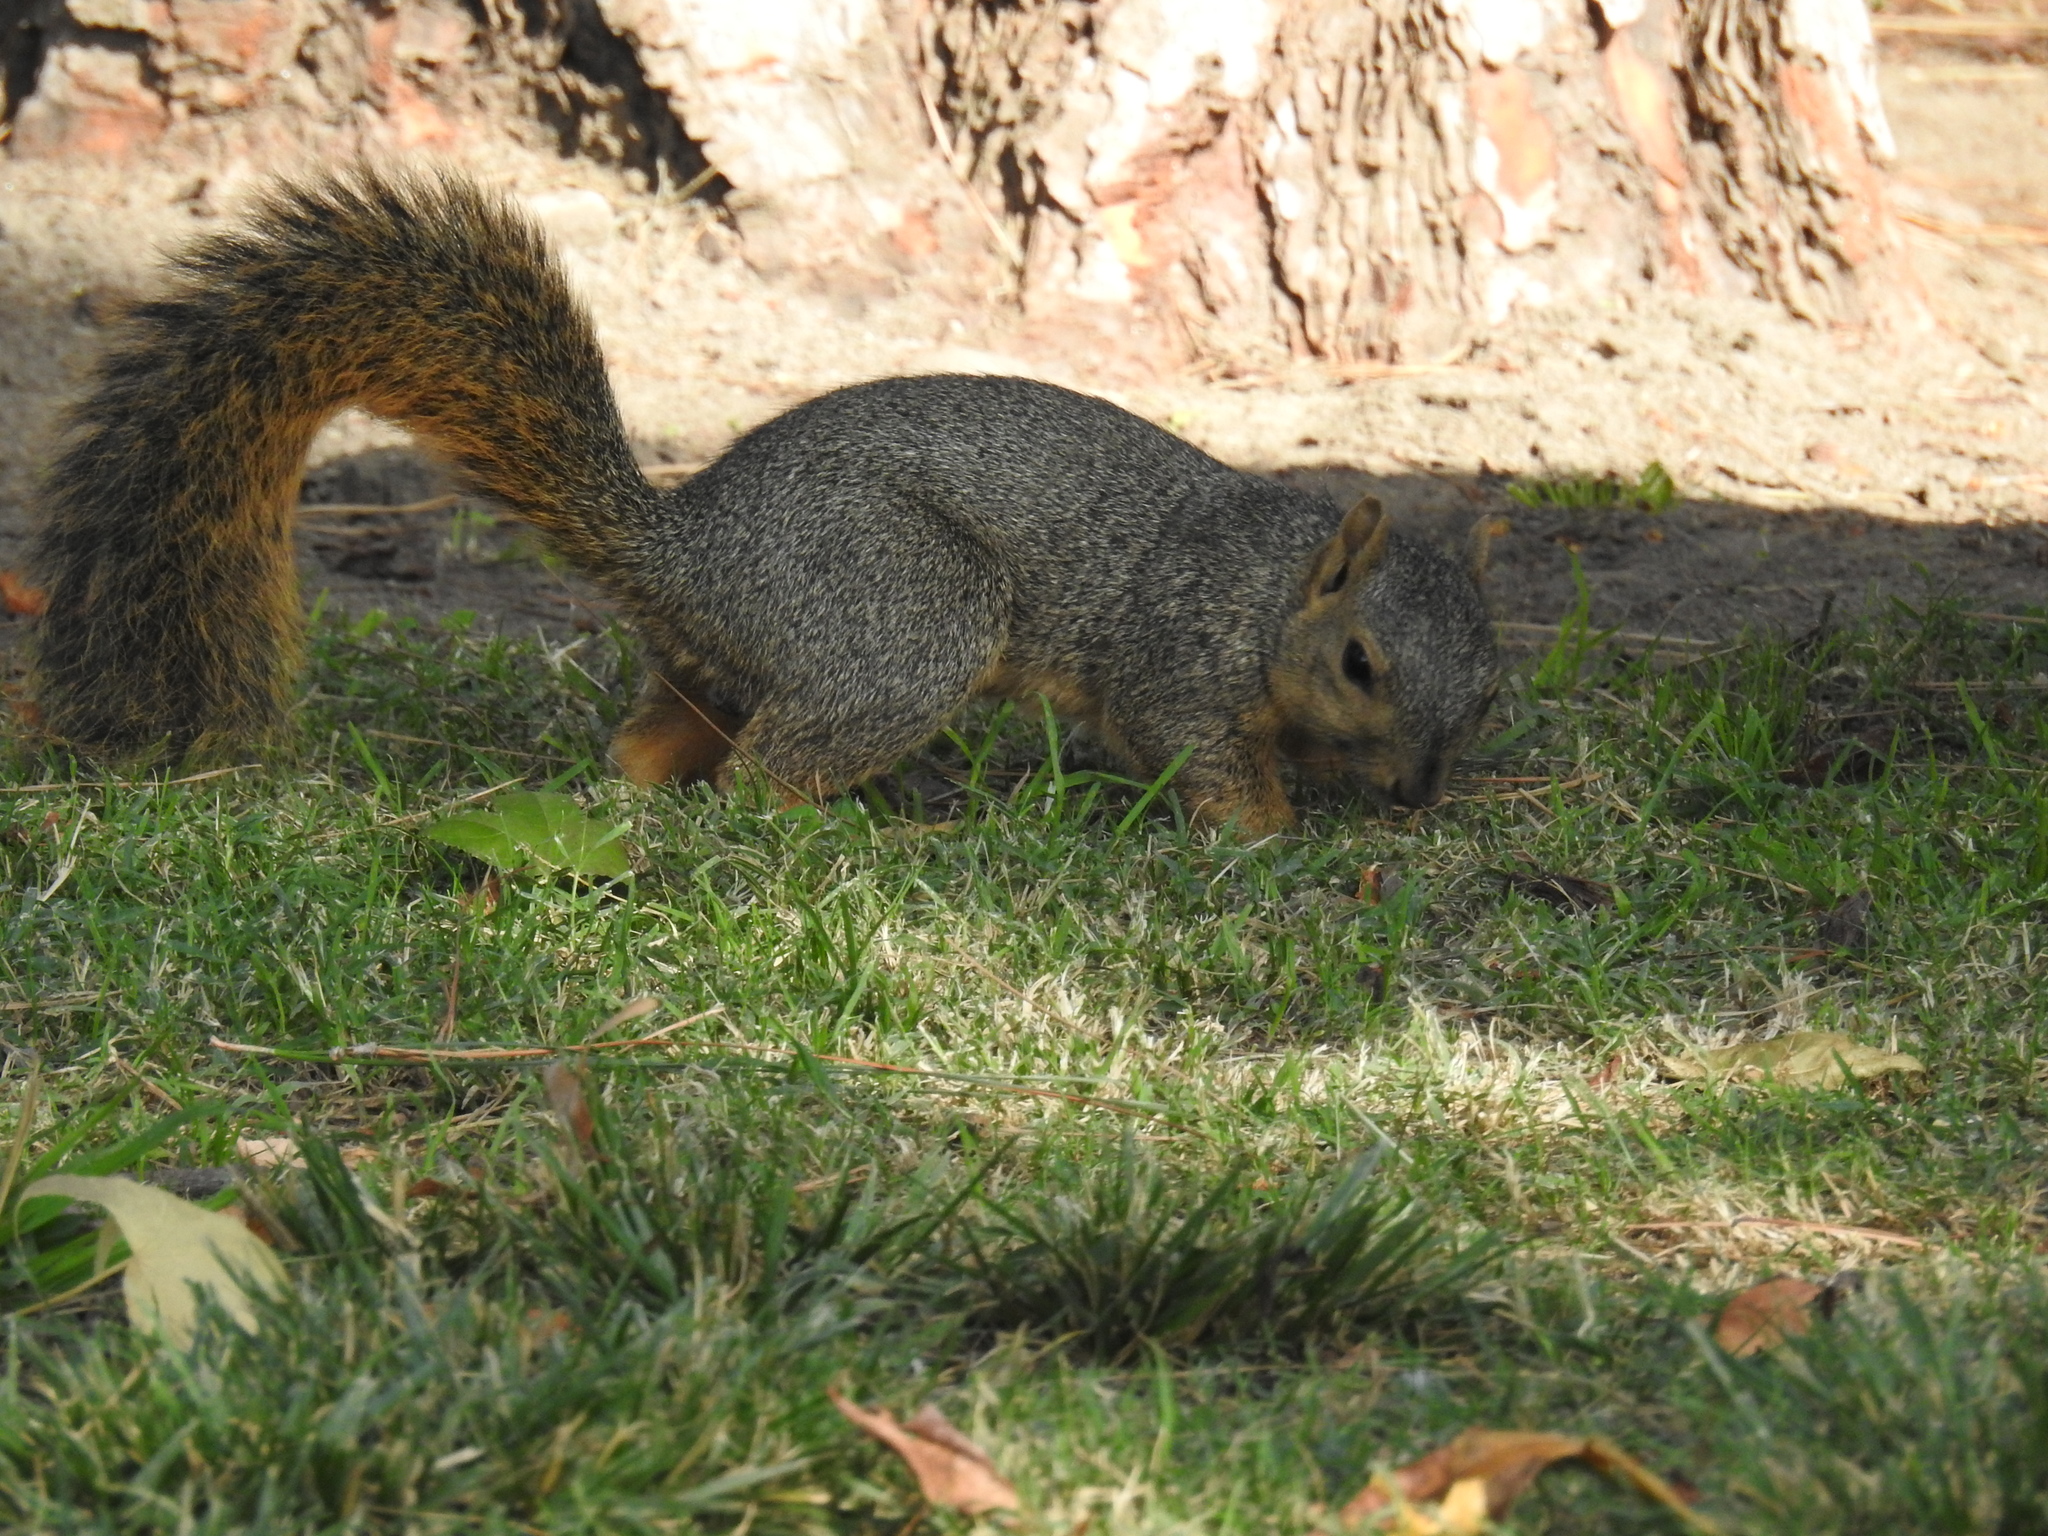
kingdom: Animalia
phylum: Chordata
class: Mammalia
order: Rodentia
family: Sciuridae
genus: Sciurus
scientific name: Sciurus niger
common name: Fox squirrel
